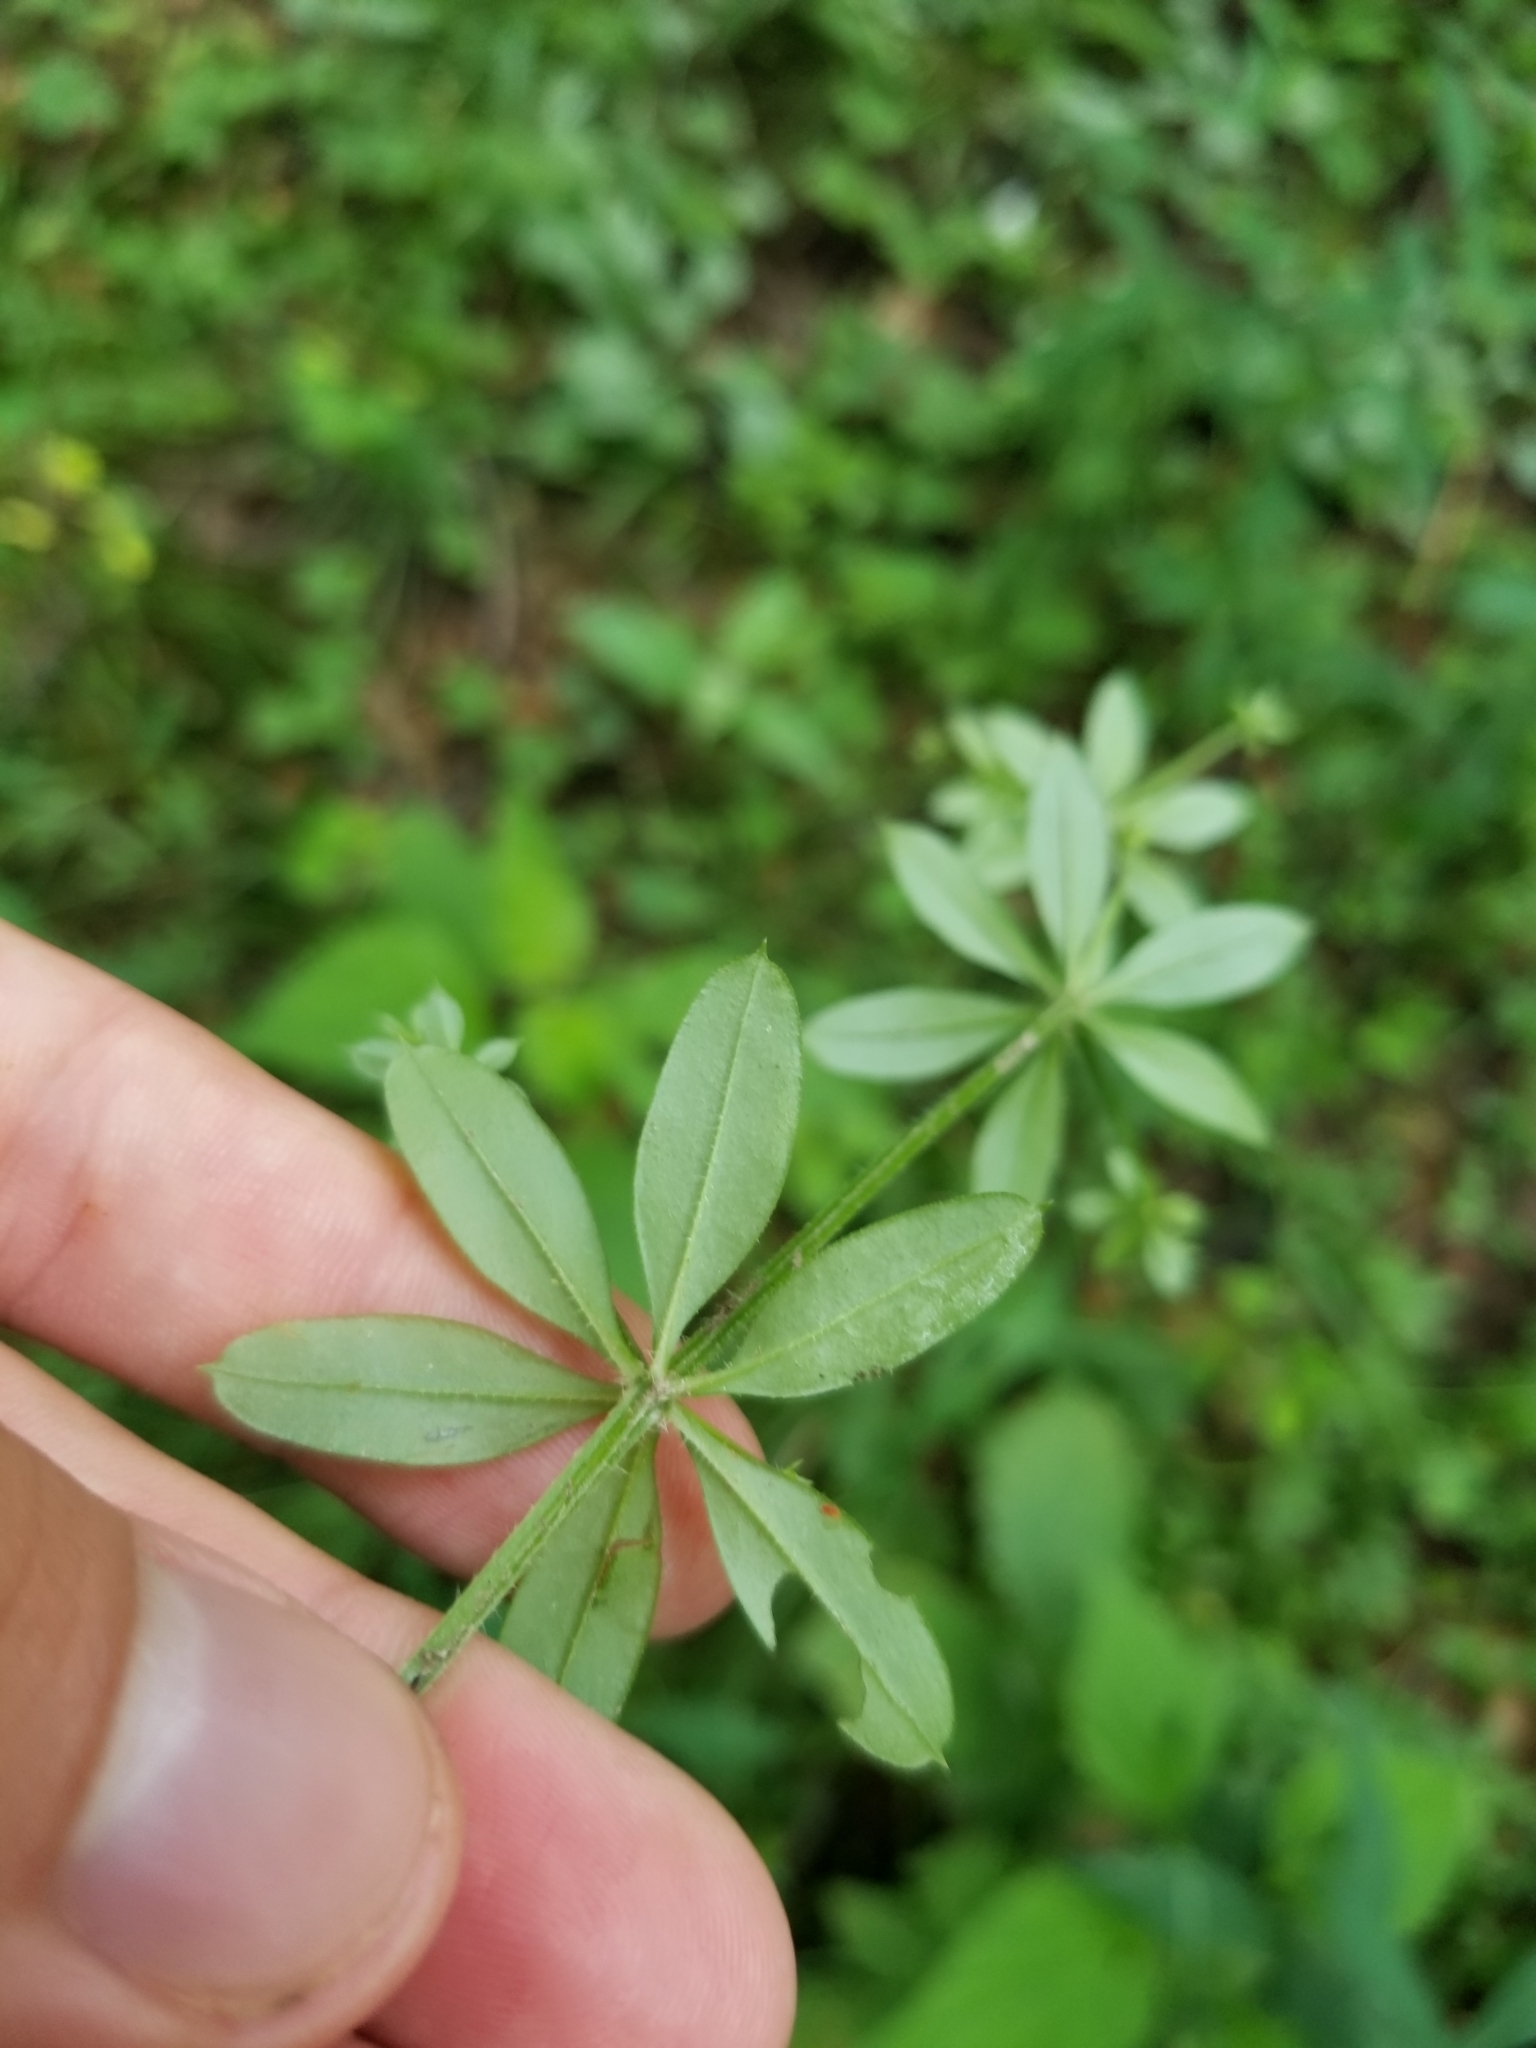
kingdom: Plantae
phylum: Tracheophyta
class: Magnoliopsida
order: Gentianales
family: Rubiaceae
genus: Galium
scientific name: Galium triflorum
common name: Fragrant bedstraw
